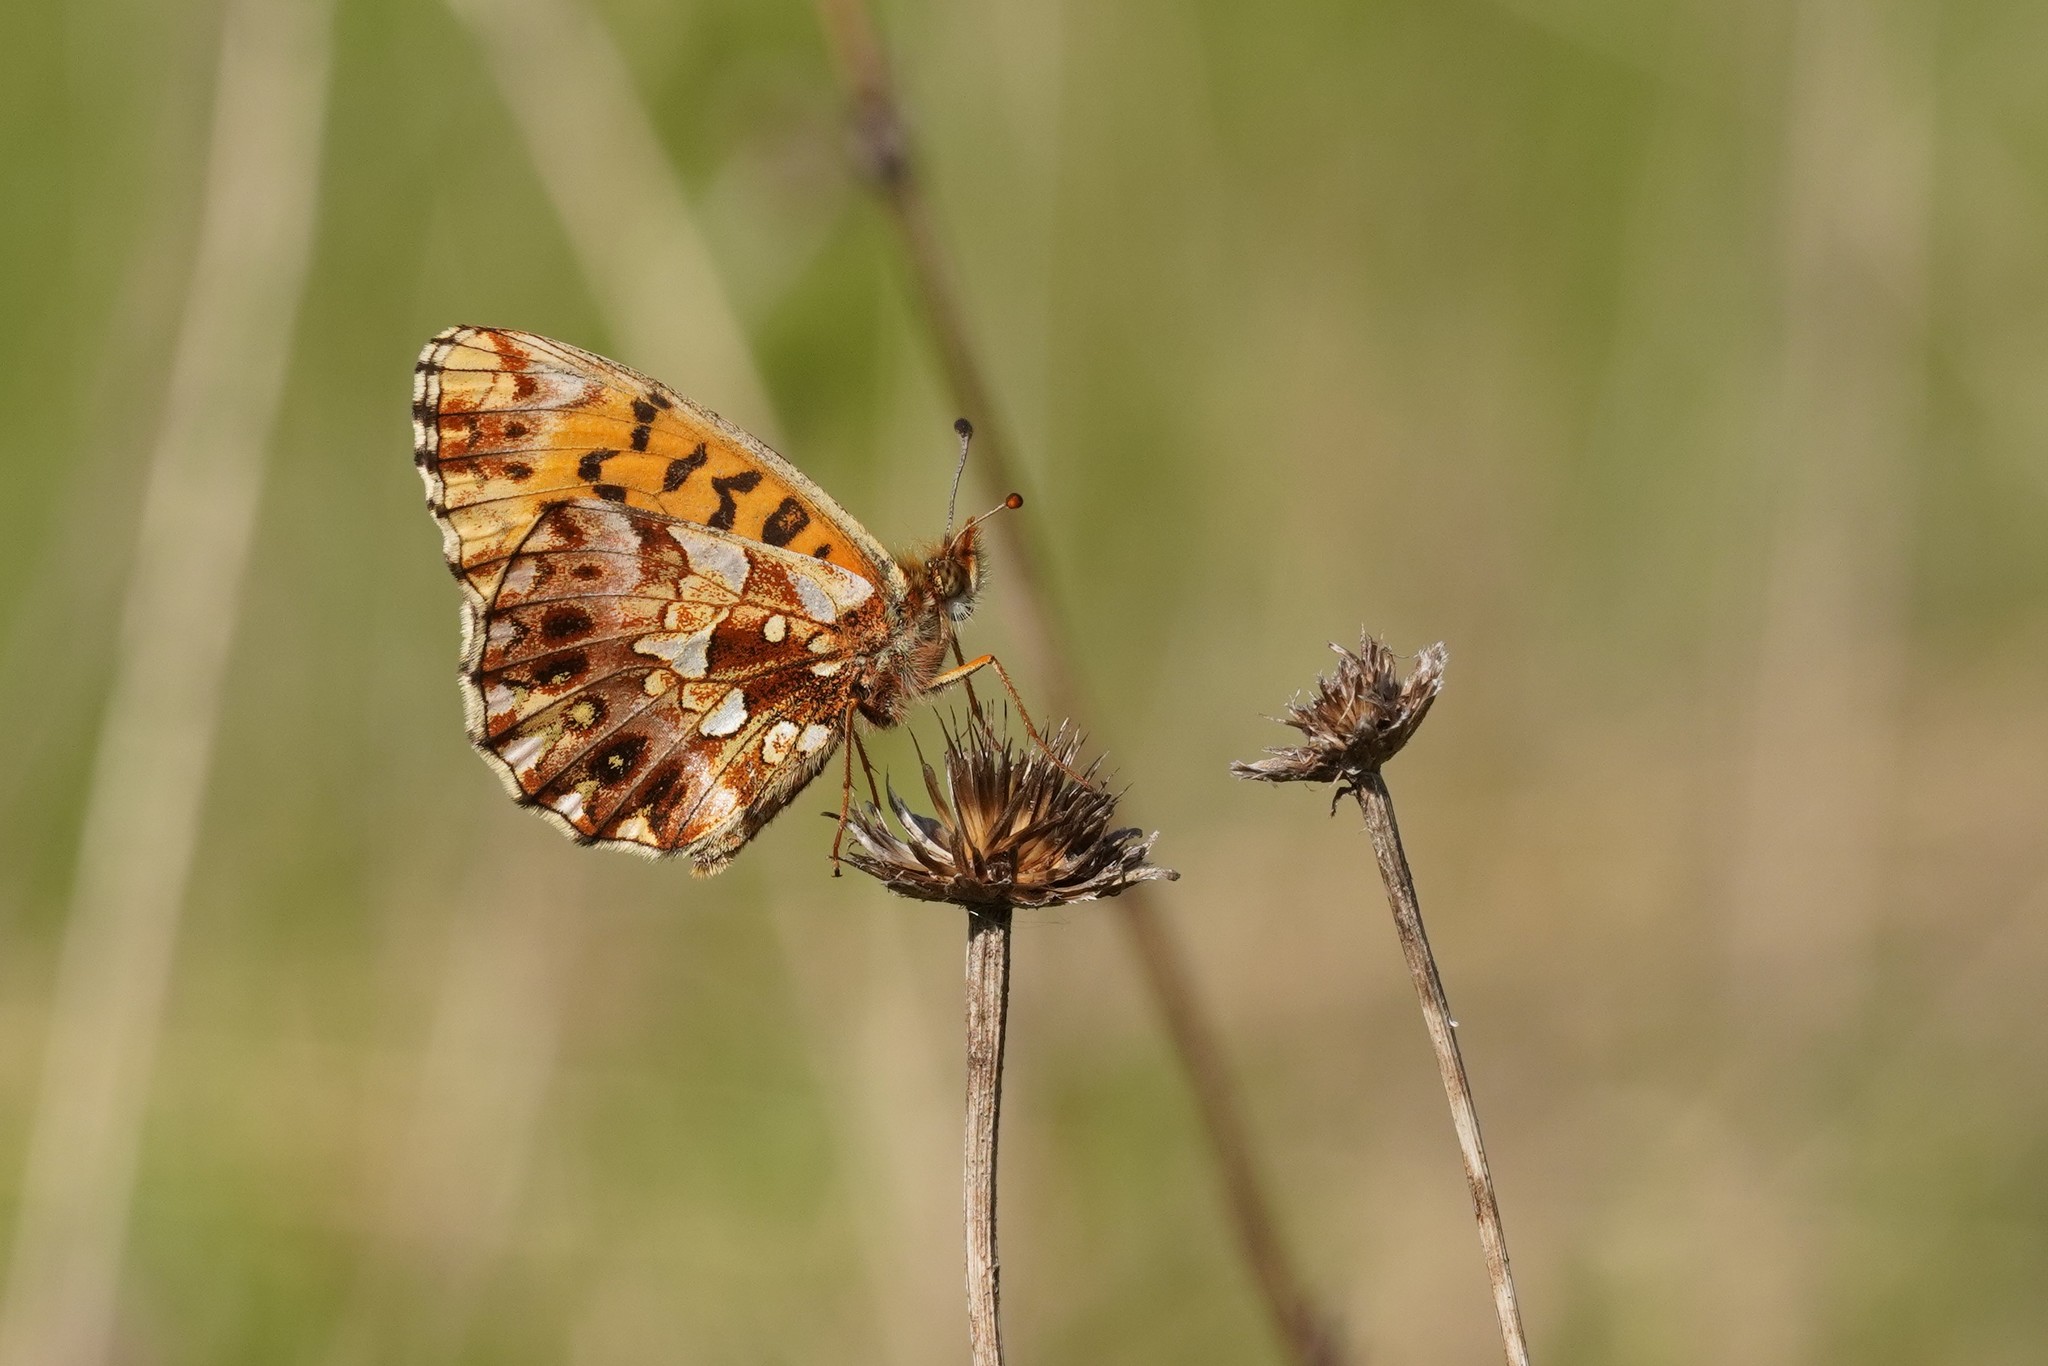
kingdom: Animalia
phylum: Arthropoda
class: Insecta
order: Lepidoptera
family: Nymphalidae
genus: Boloria
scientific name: Boloria dia
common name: Weaver's fritillary
